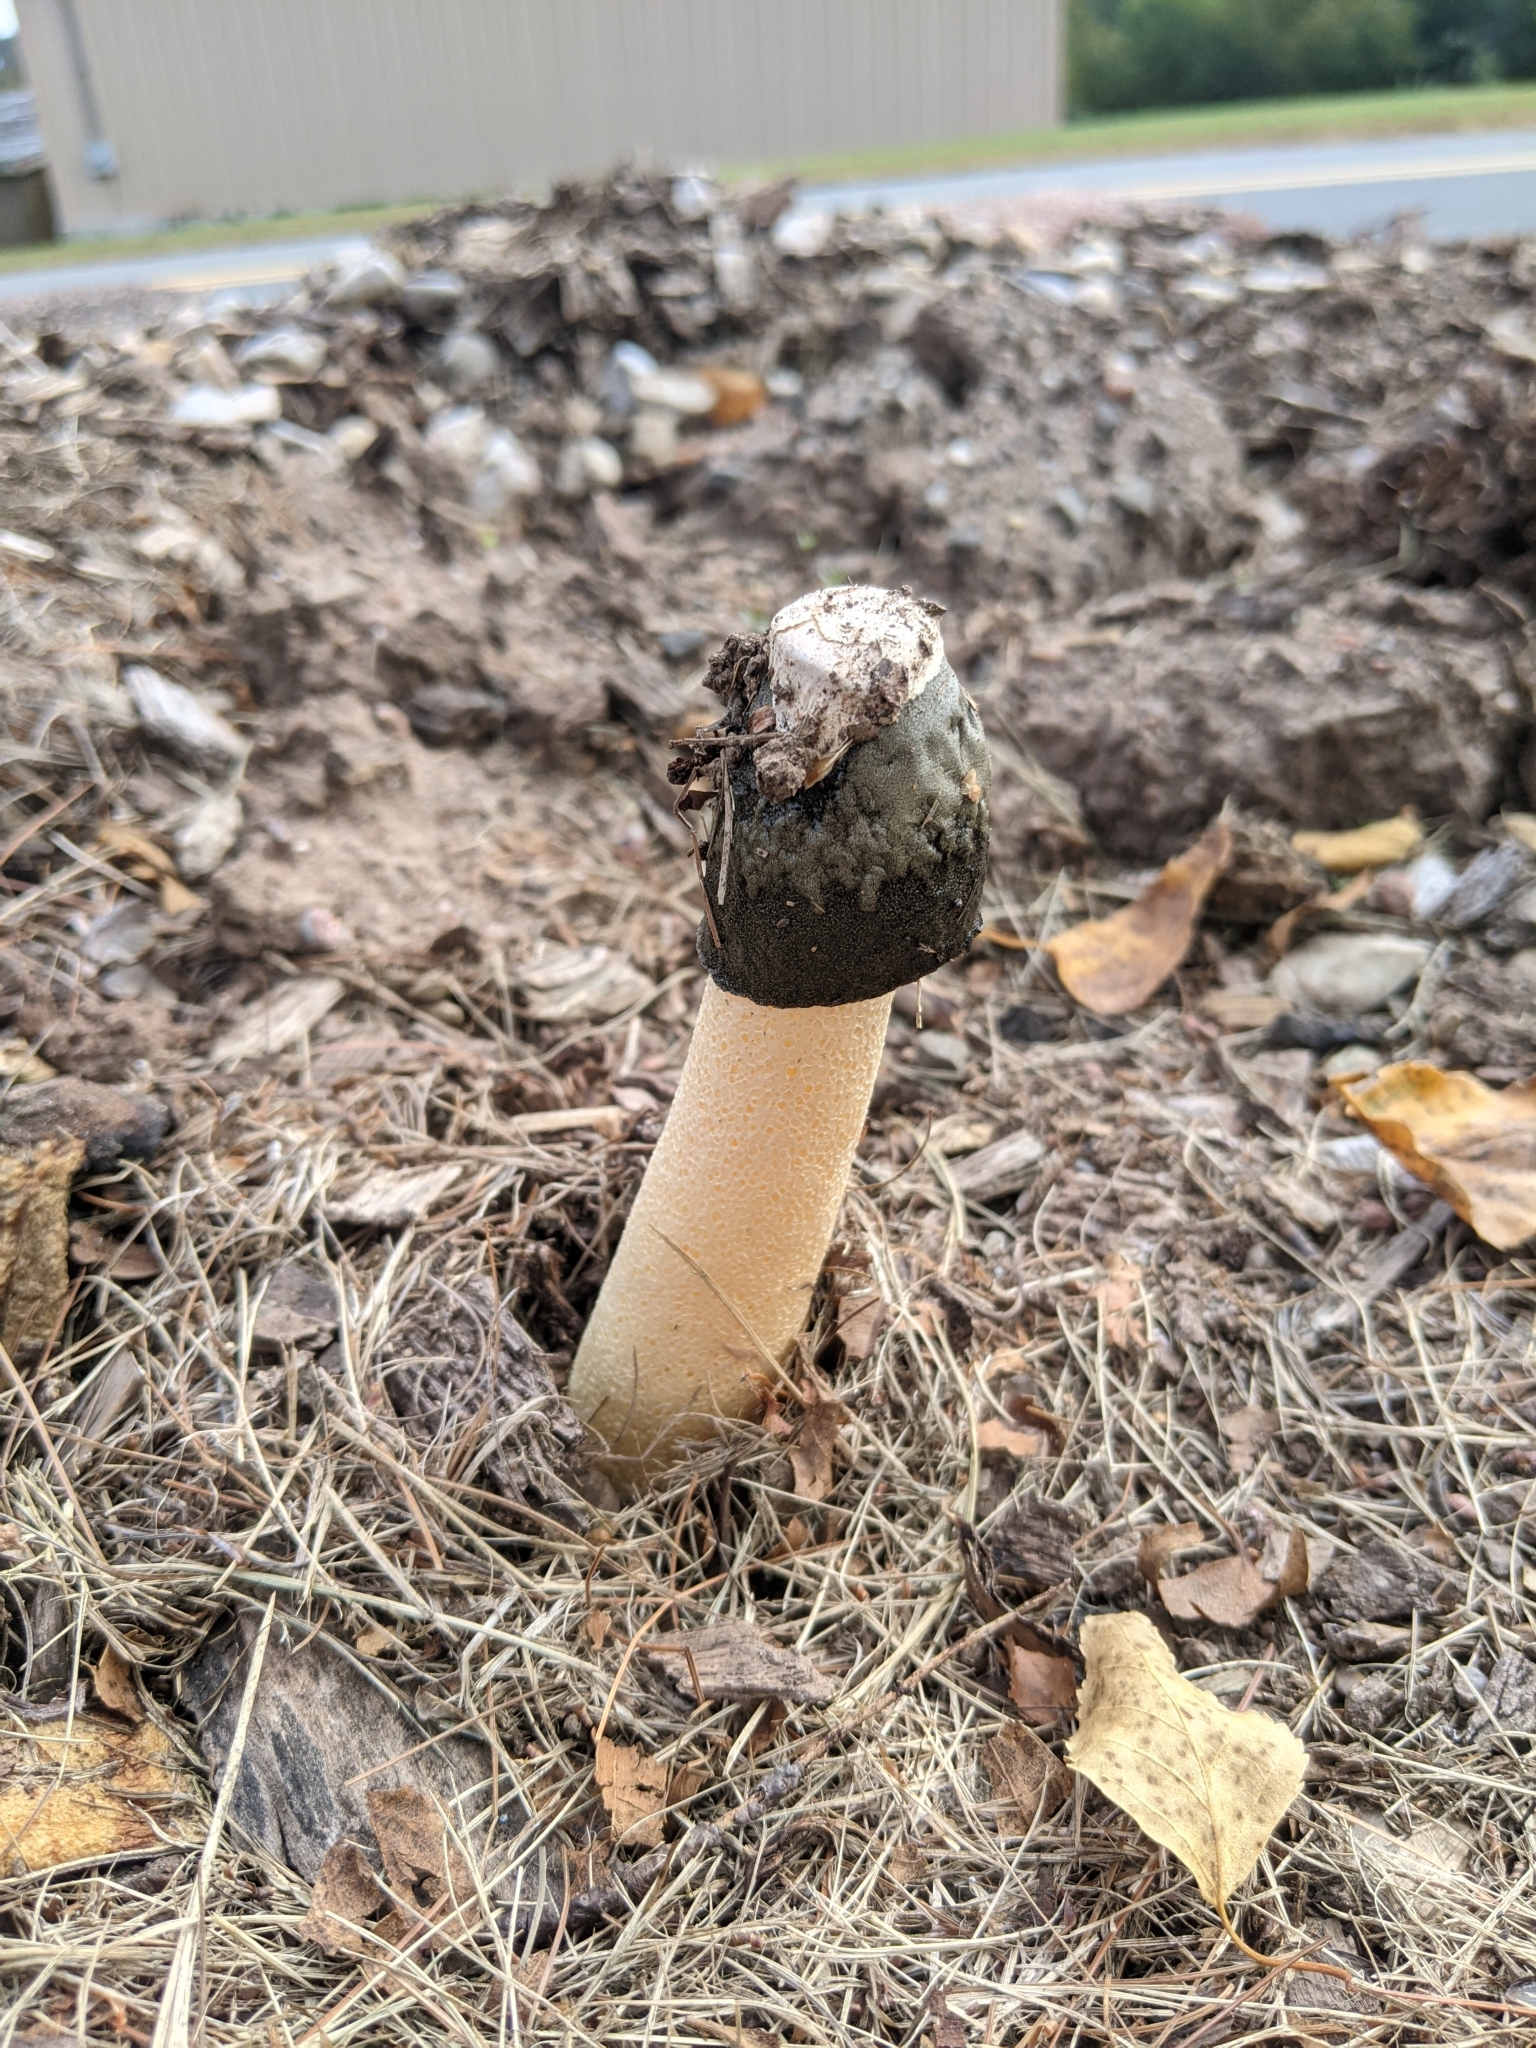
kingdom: Fungi
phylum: Basidiomycota
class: Agaricomycetes
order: Phallales
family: Phallaceae
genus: Phallus
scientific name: Phallus ravenelii
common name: Ravenel's stinkhorn
